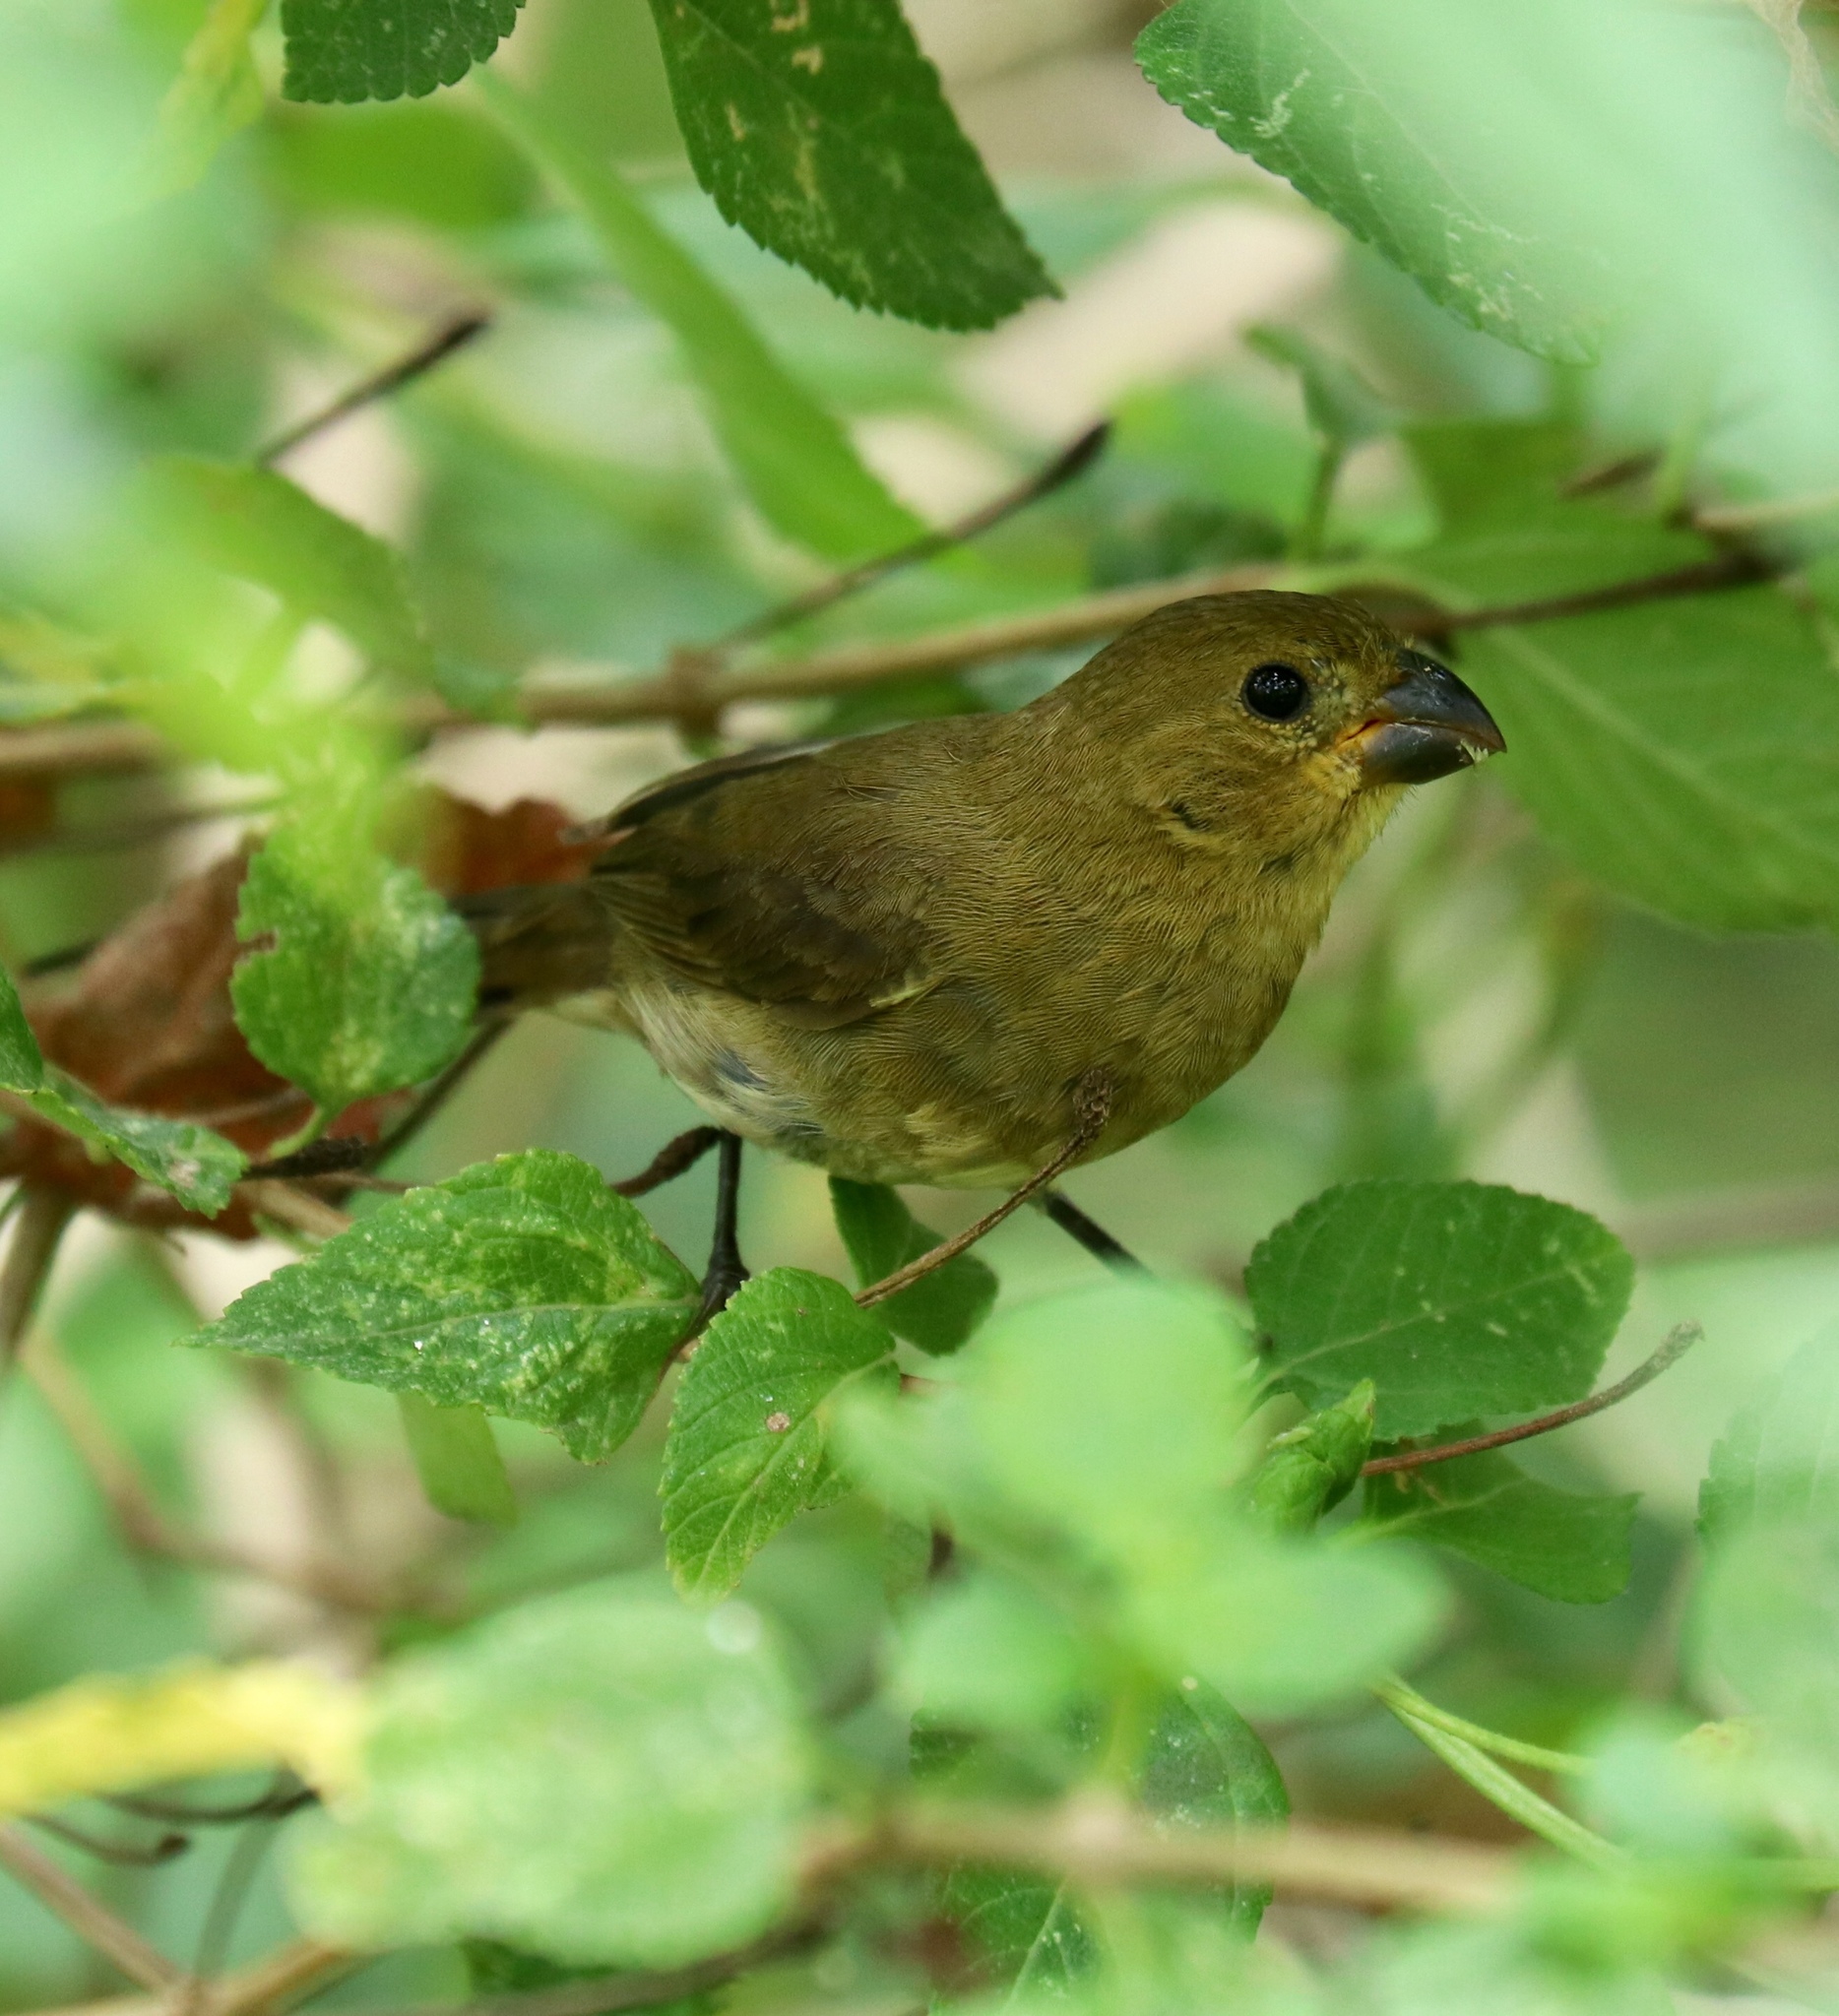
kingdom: Animalia
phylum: Chordata
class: Aves
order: Passeriformes
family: Thraupidae
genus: Sporophila
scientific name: Sporophila corvina
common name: Variable seedeater
